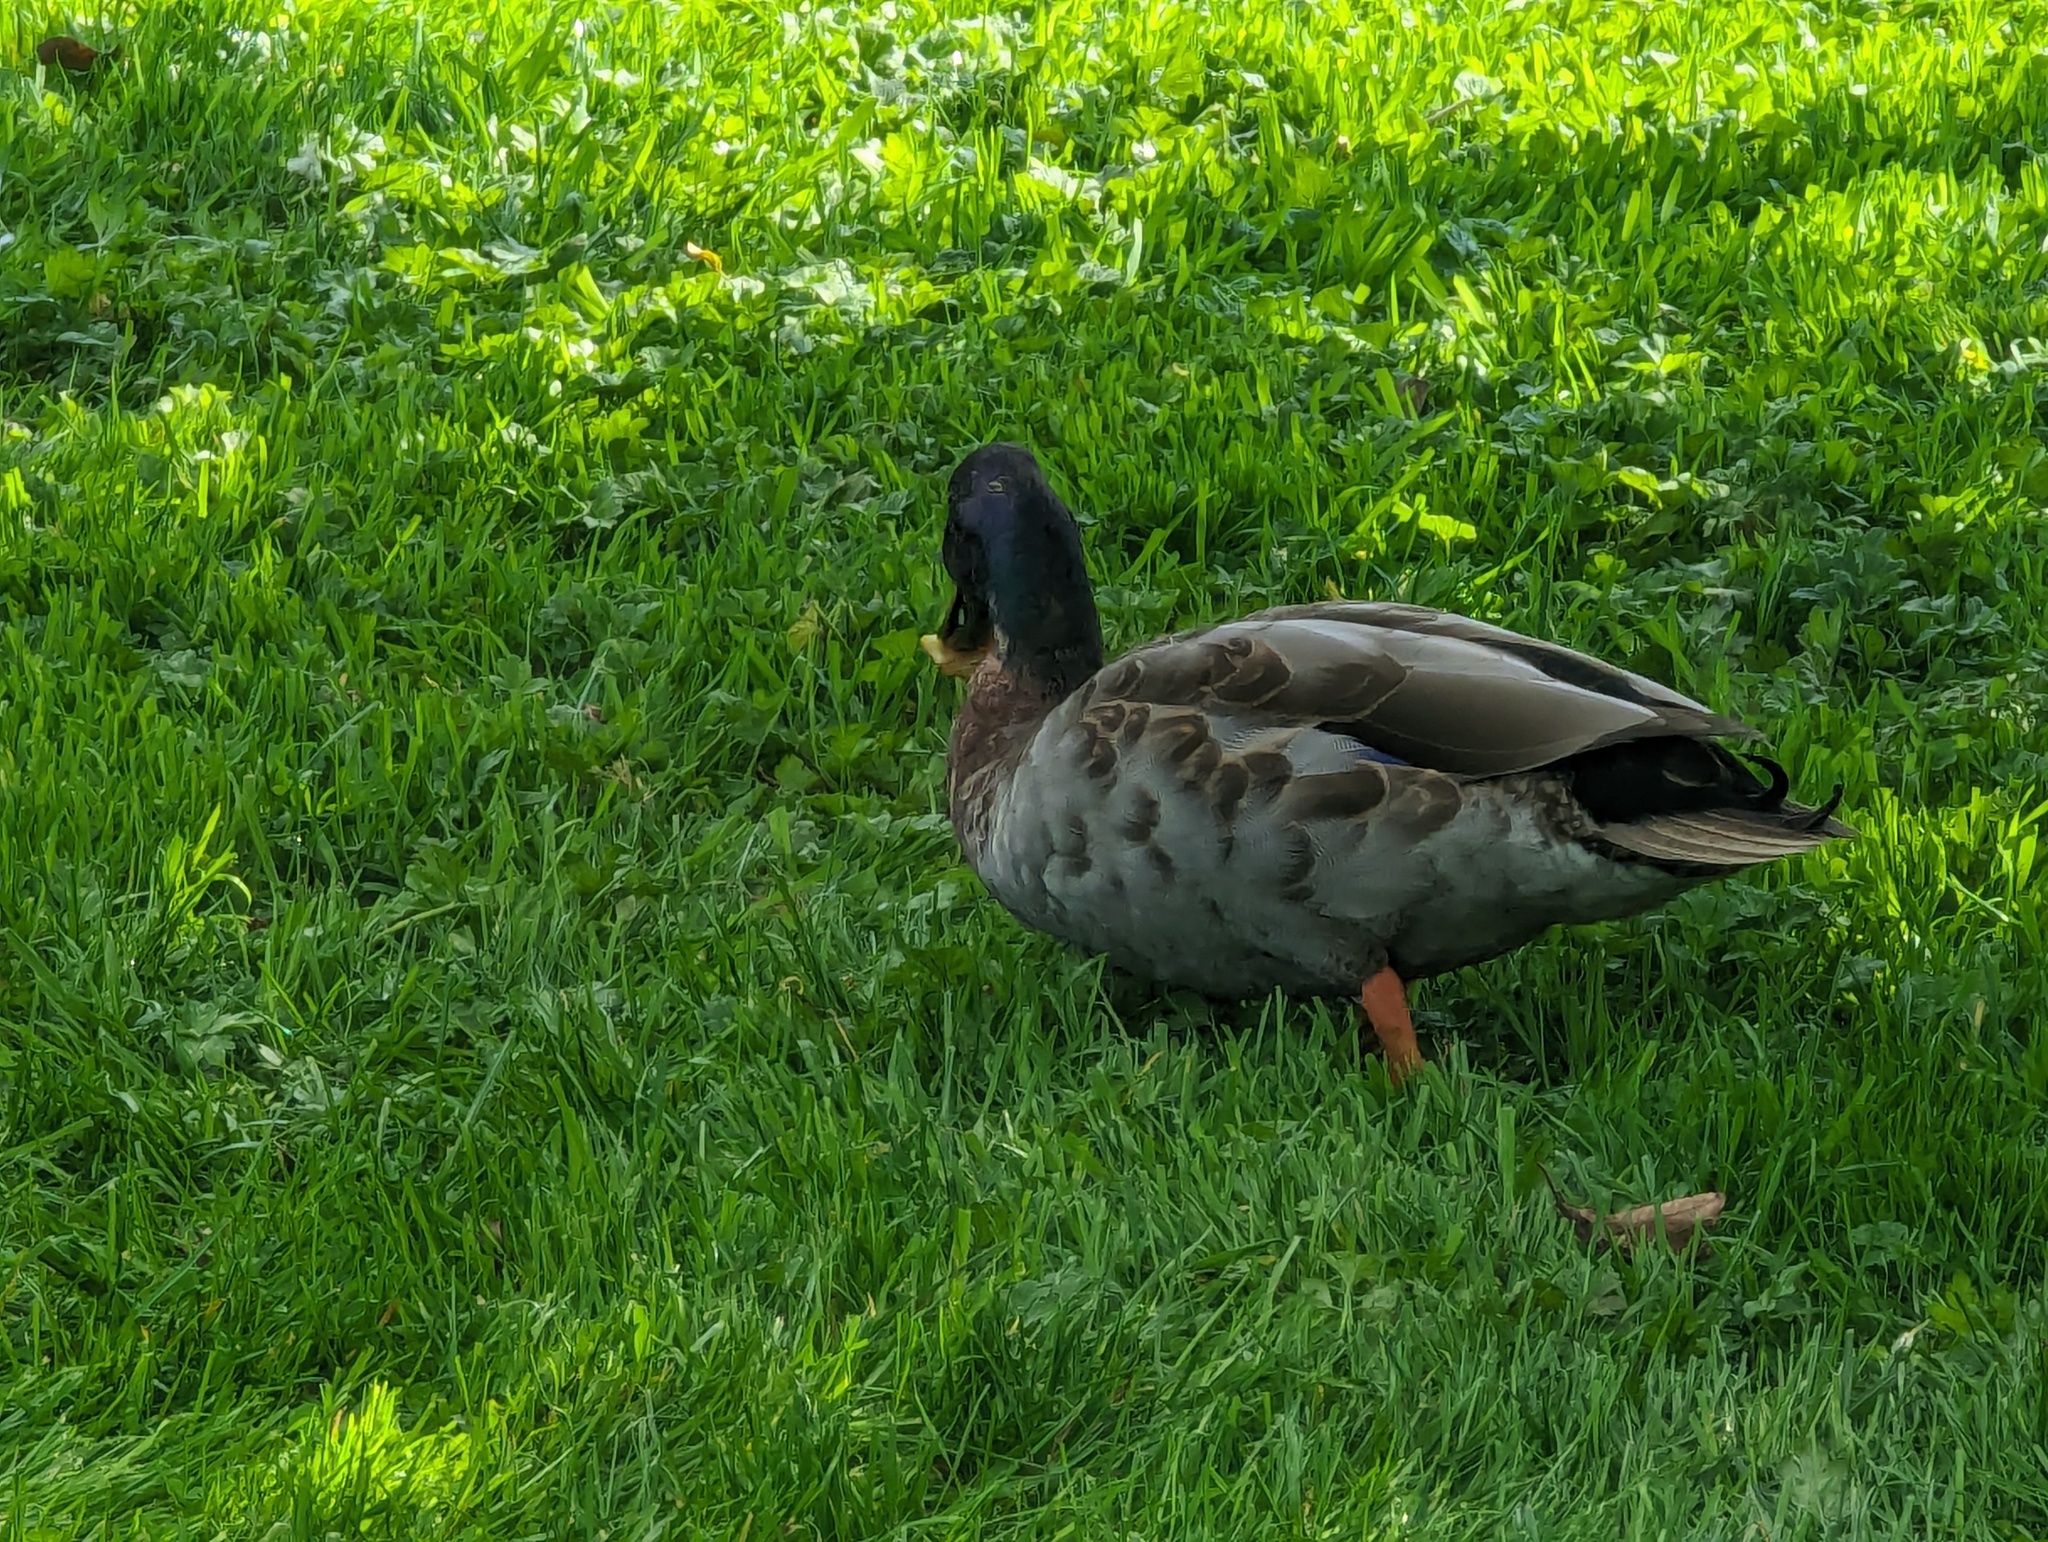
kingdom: Animalia
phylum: Chordata
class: Aves
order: Anseriformes
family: Anatidae
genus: Anas
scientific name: Anas platyrhynchos
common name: Mallard
